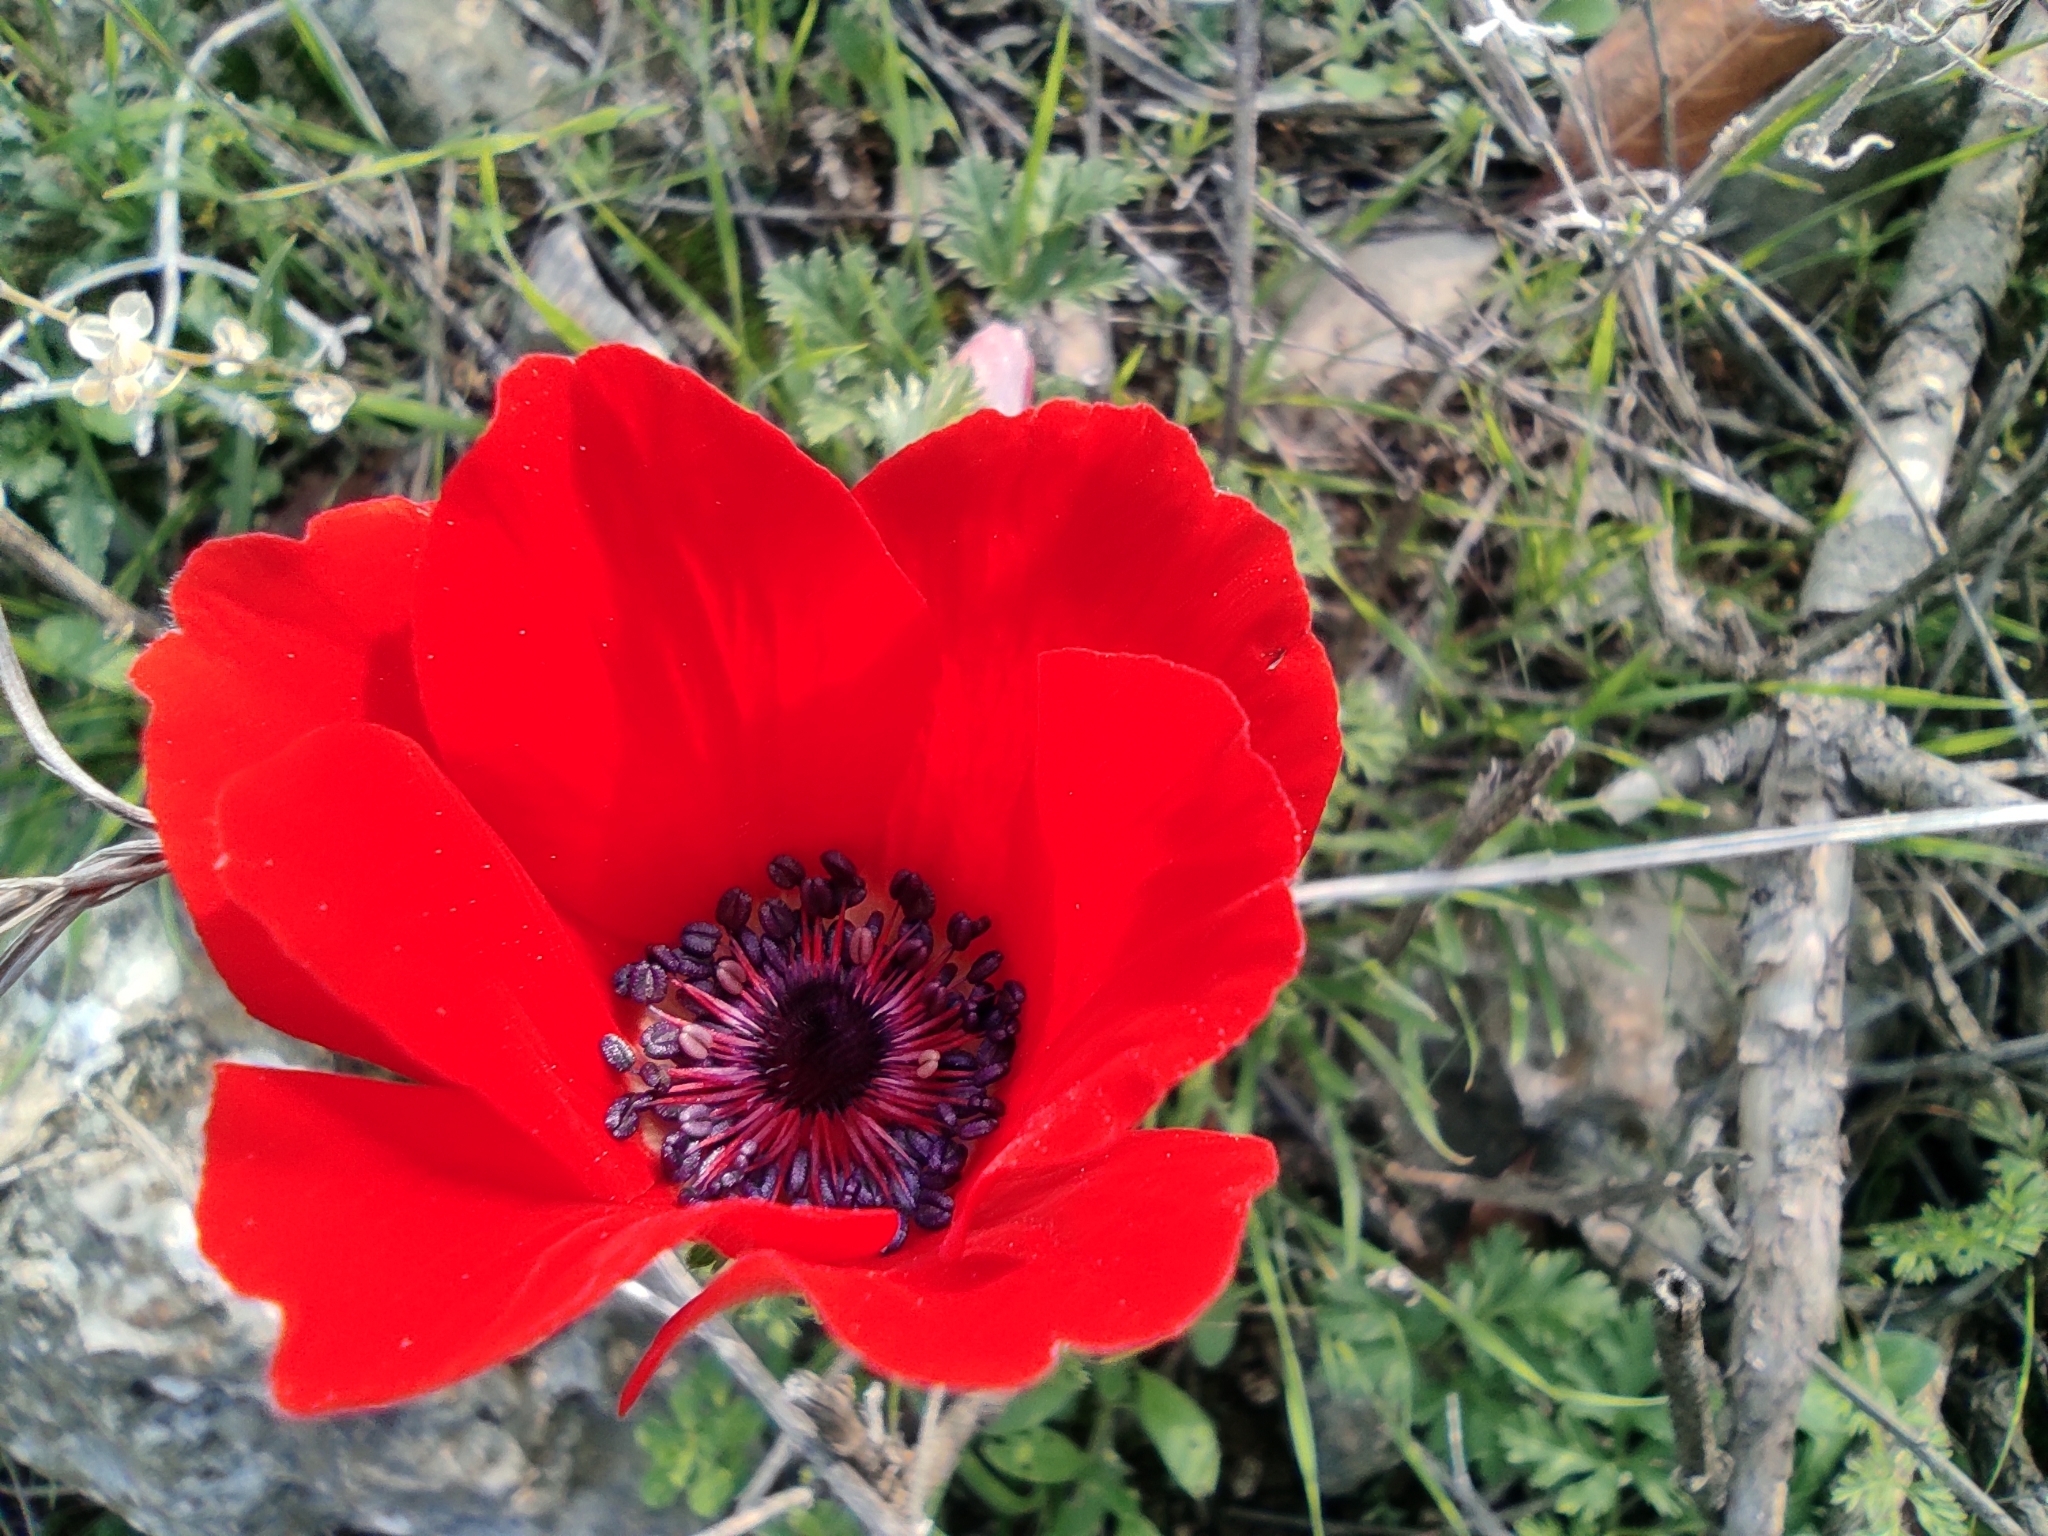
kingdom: Plantae
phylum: Tracheophyta
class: Magnoliopsida
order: Ranunculales
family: Ranunculaceae
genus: Anemone
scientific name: Anemone coronaria
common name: Poppy anemone
